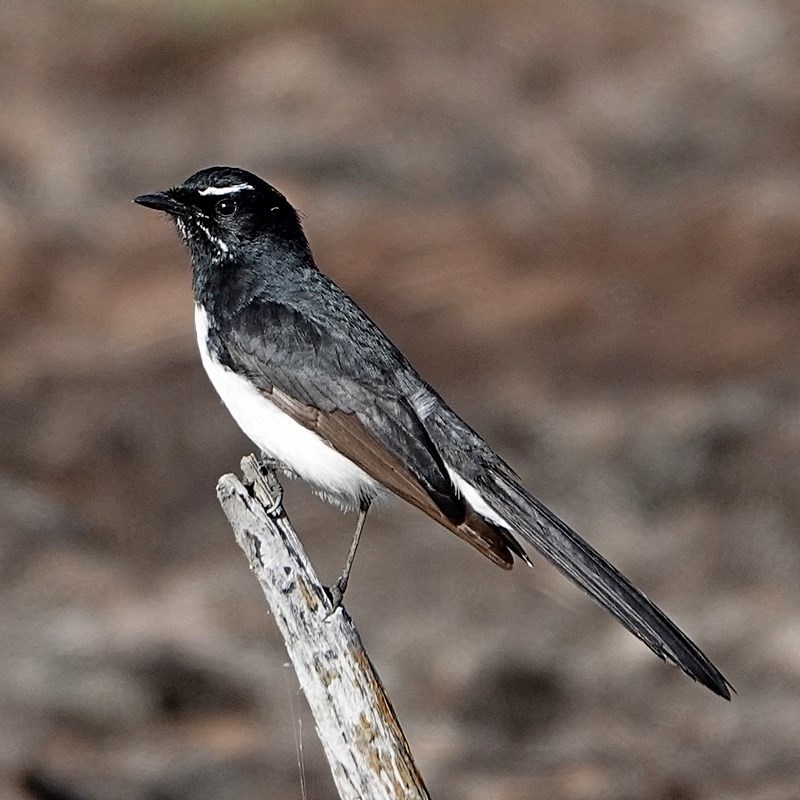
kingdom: Animalia
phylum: Chordata
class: Aves
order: Passeriformes
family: Rhipiduridae
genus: Rhipidura
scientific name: Rhipidura leucophrys
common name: Willie wagtail
